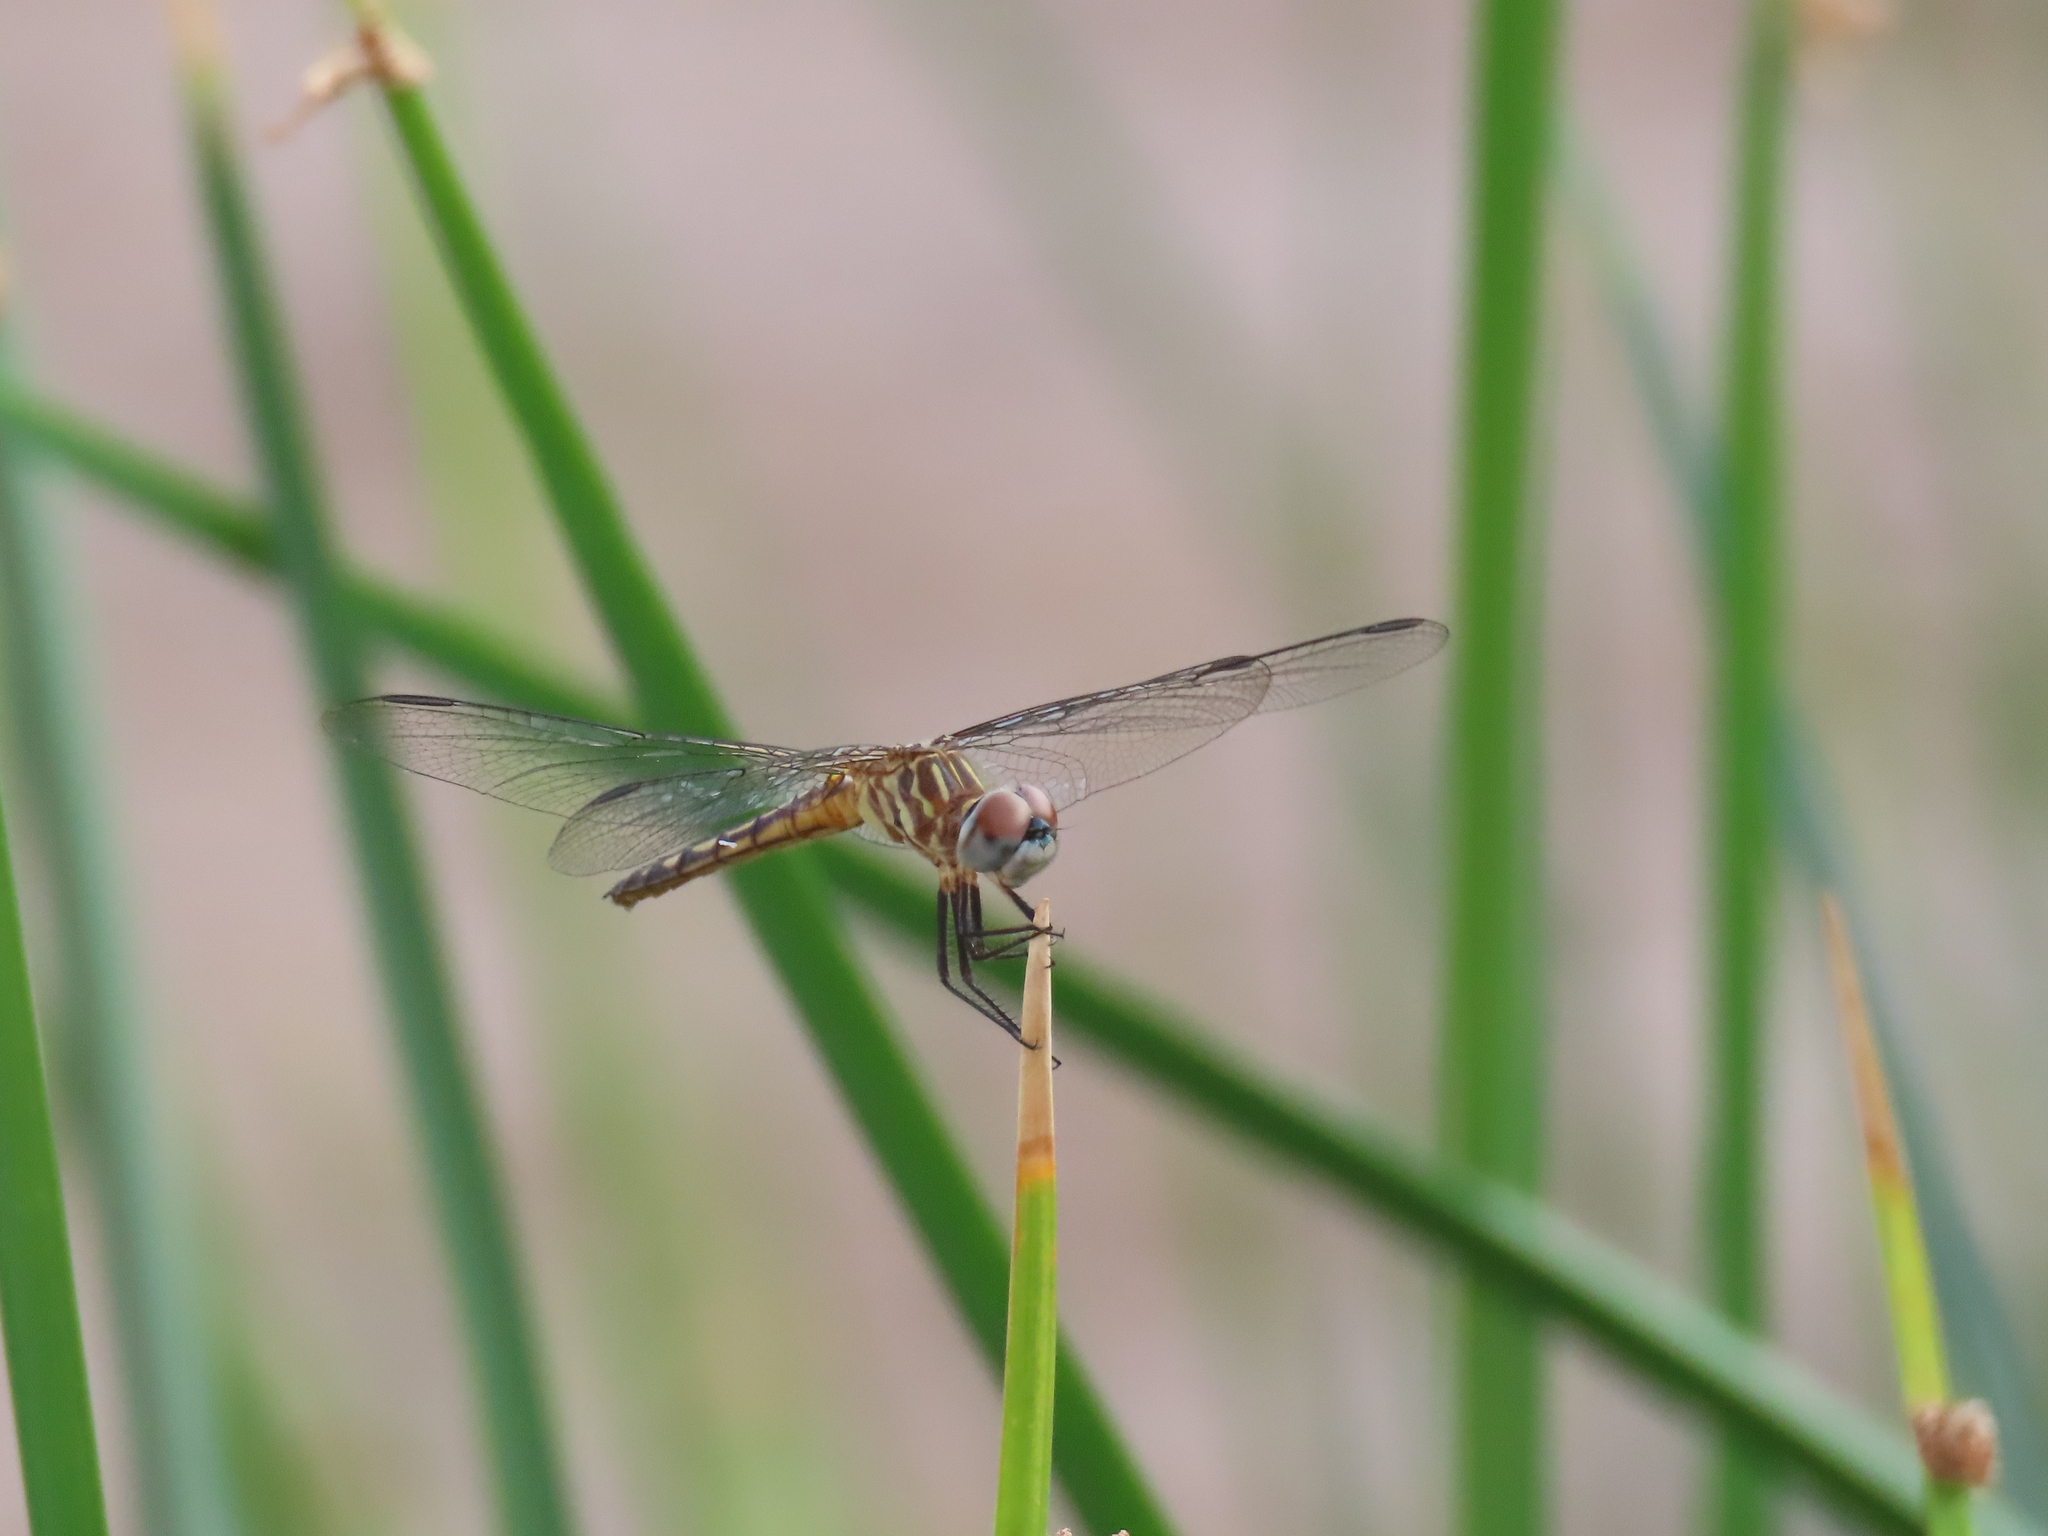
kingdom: Animalia
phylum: Arthropoda
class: Insecta
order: Odonata
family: Libellulidae
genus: Pachydiplax
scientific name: Pachydiplax longipennis
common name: Blue dasher
